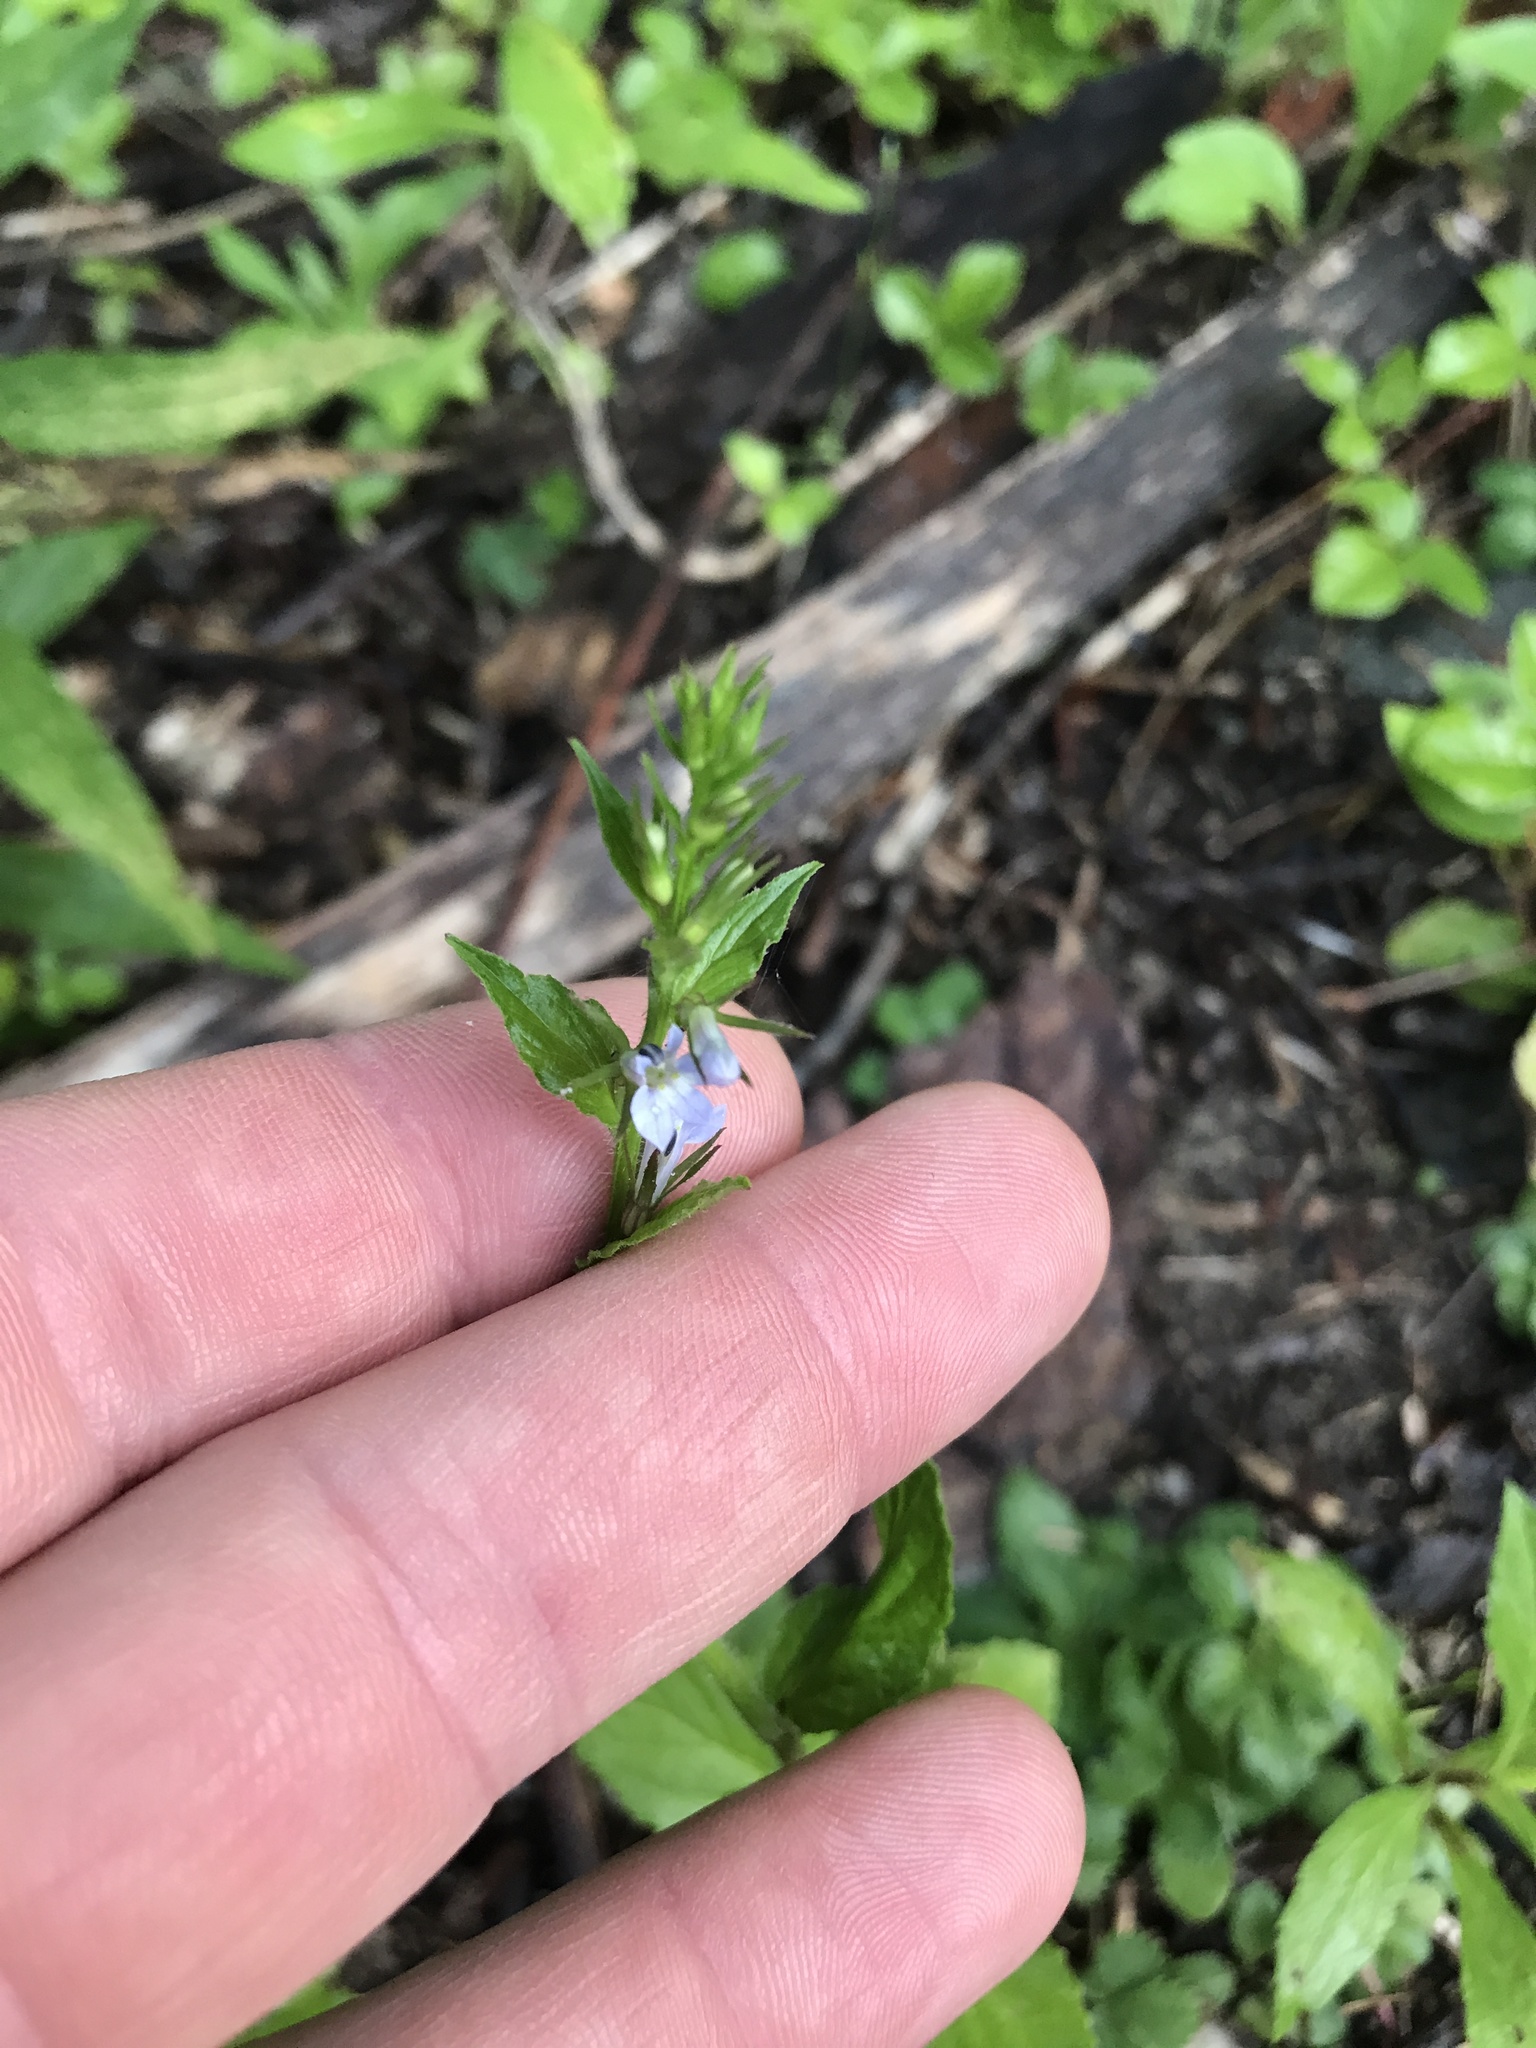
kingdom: Plantae
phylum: Tracheophyta
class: Magnoliopsida
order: Asterales
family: Campanulaceae
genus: Lobelia
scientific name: Lobelia inflata
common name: Indian tobacco
